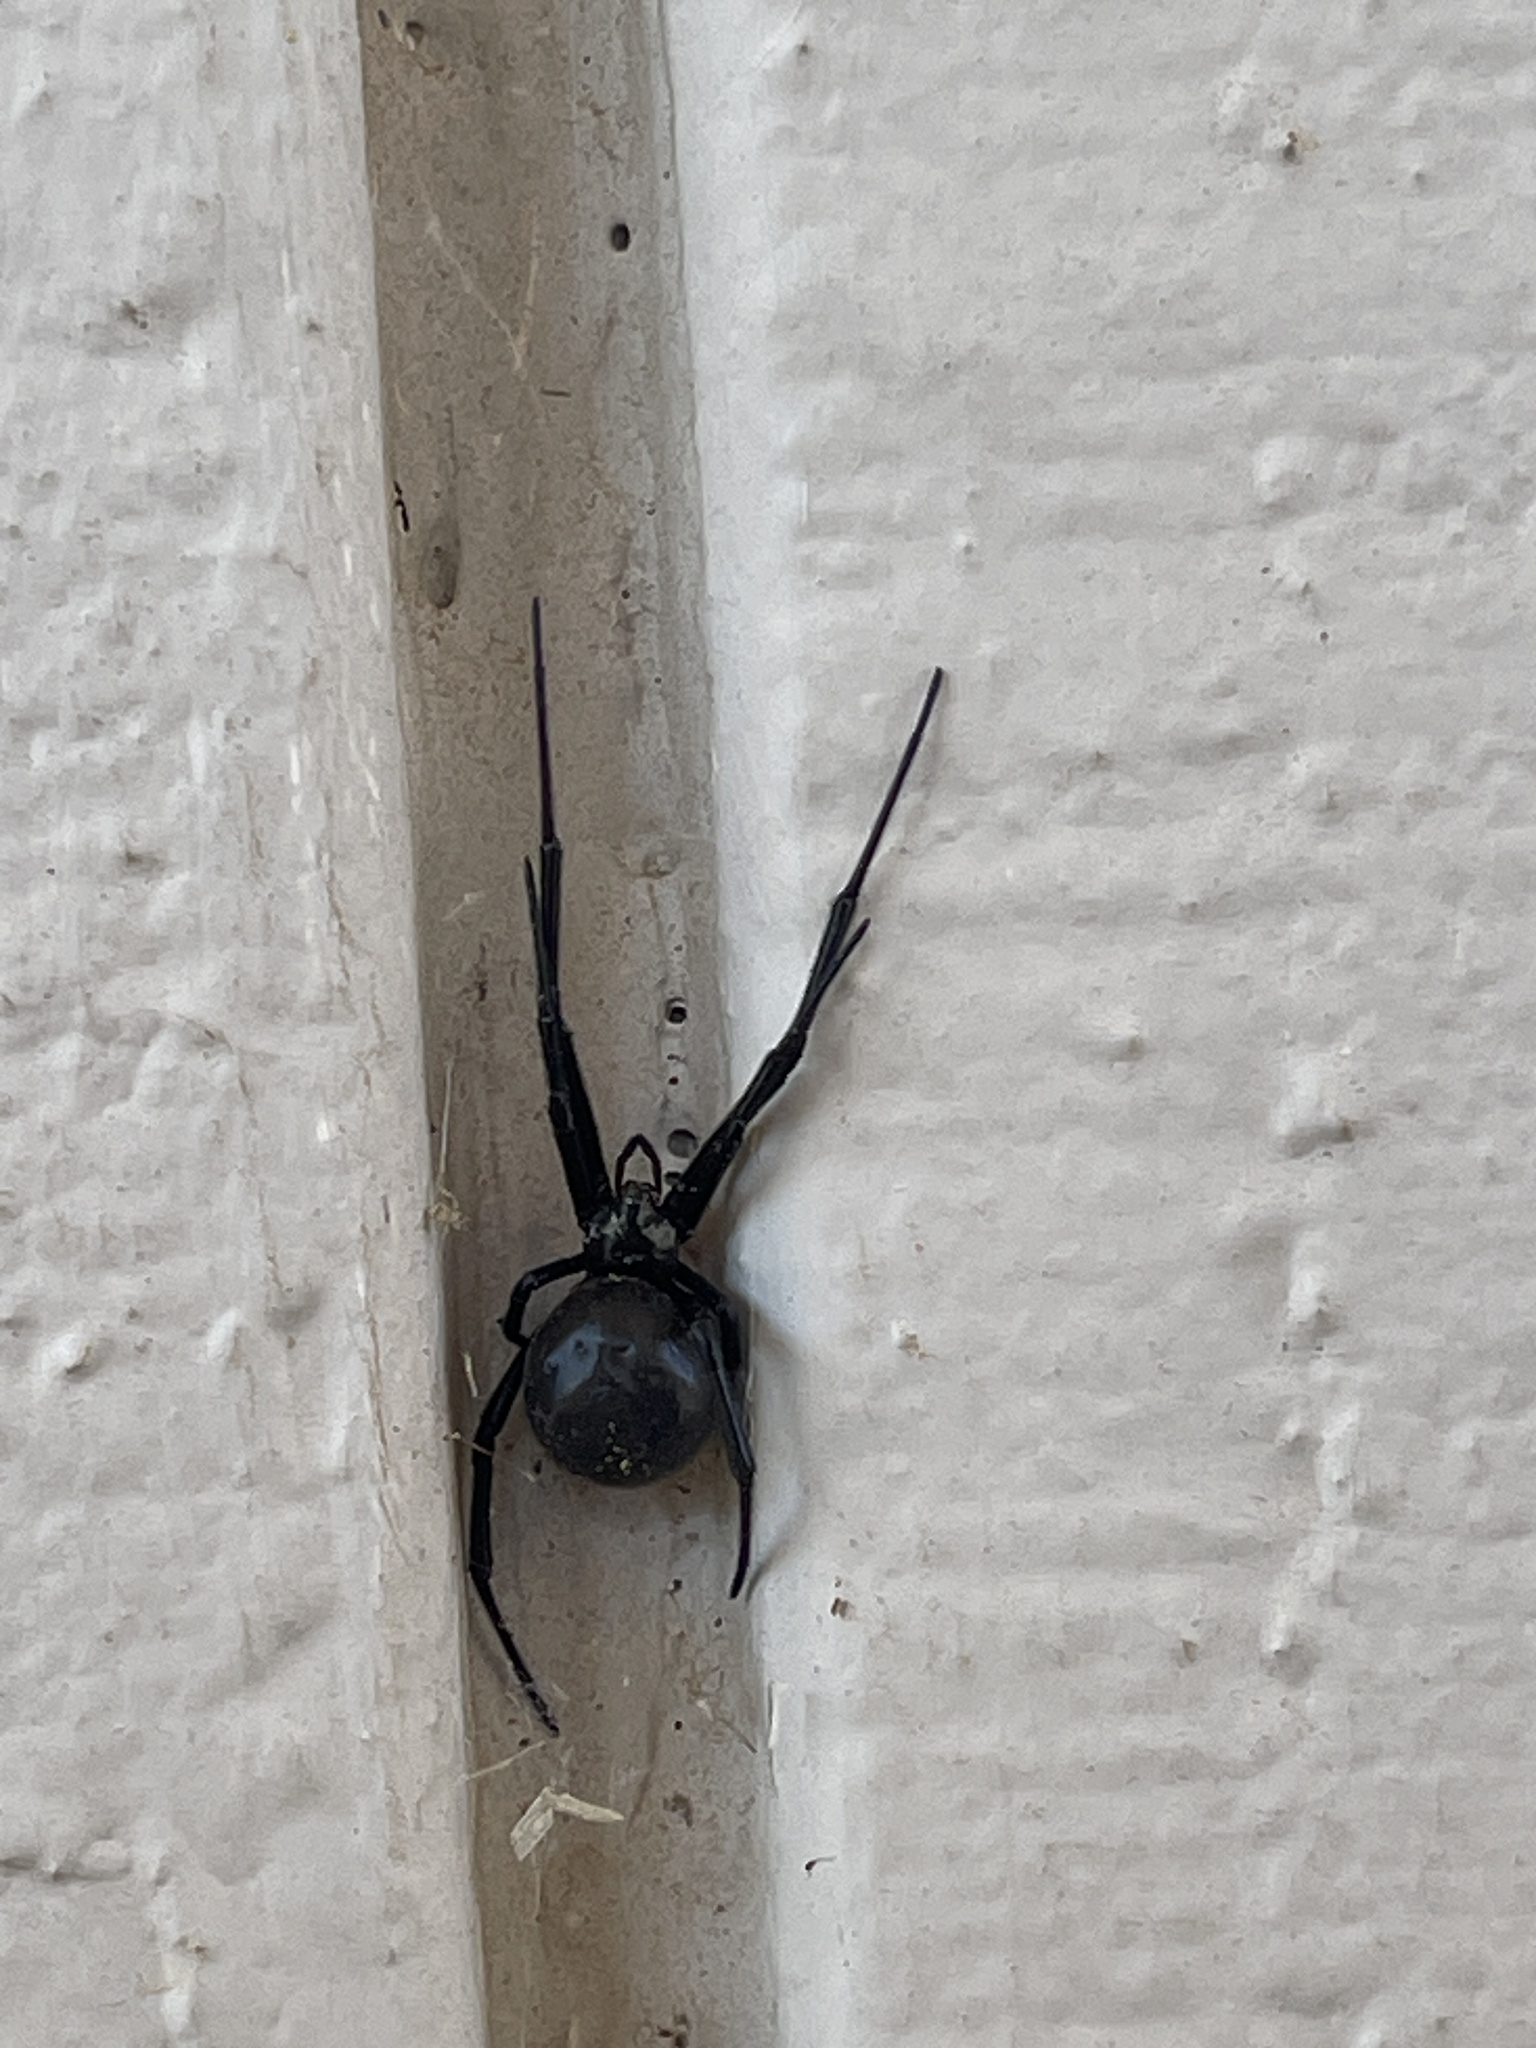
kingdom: Animalia
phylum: Arthropoda
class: Arachnida
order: Araneae
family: Theridiidae
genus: Latrodectus
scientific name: Latrodectus hesperus
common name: Western black widow
